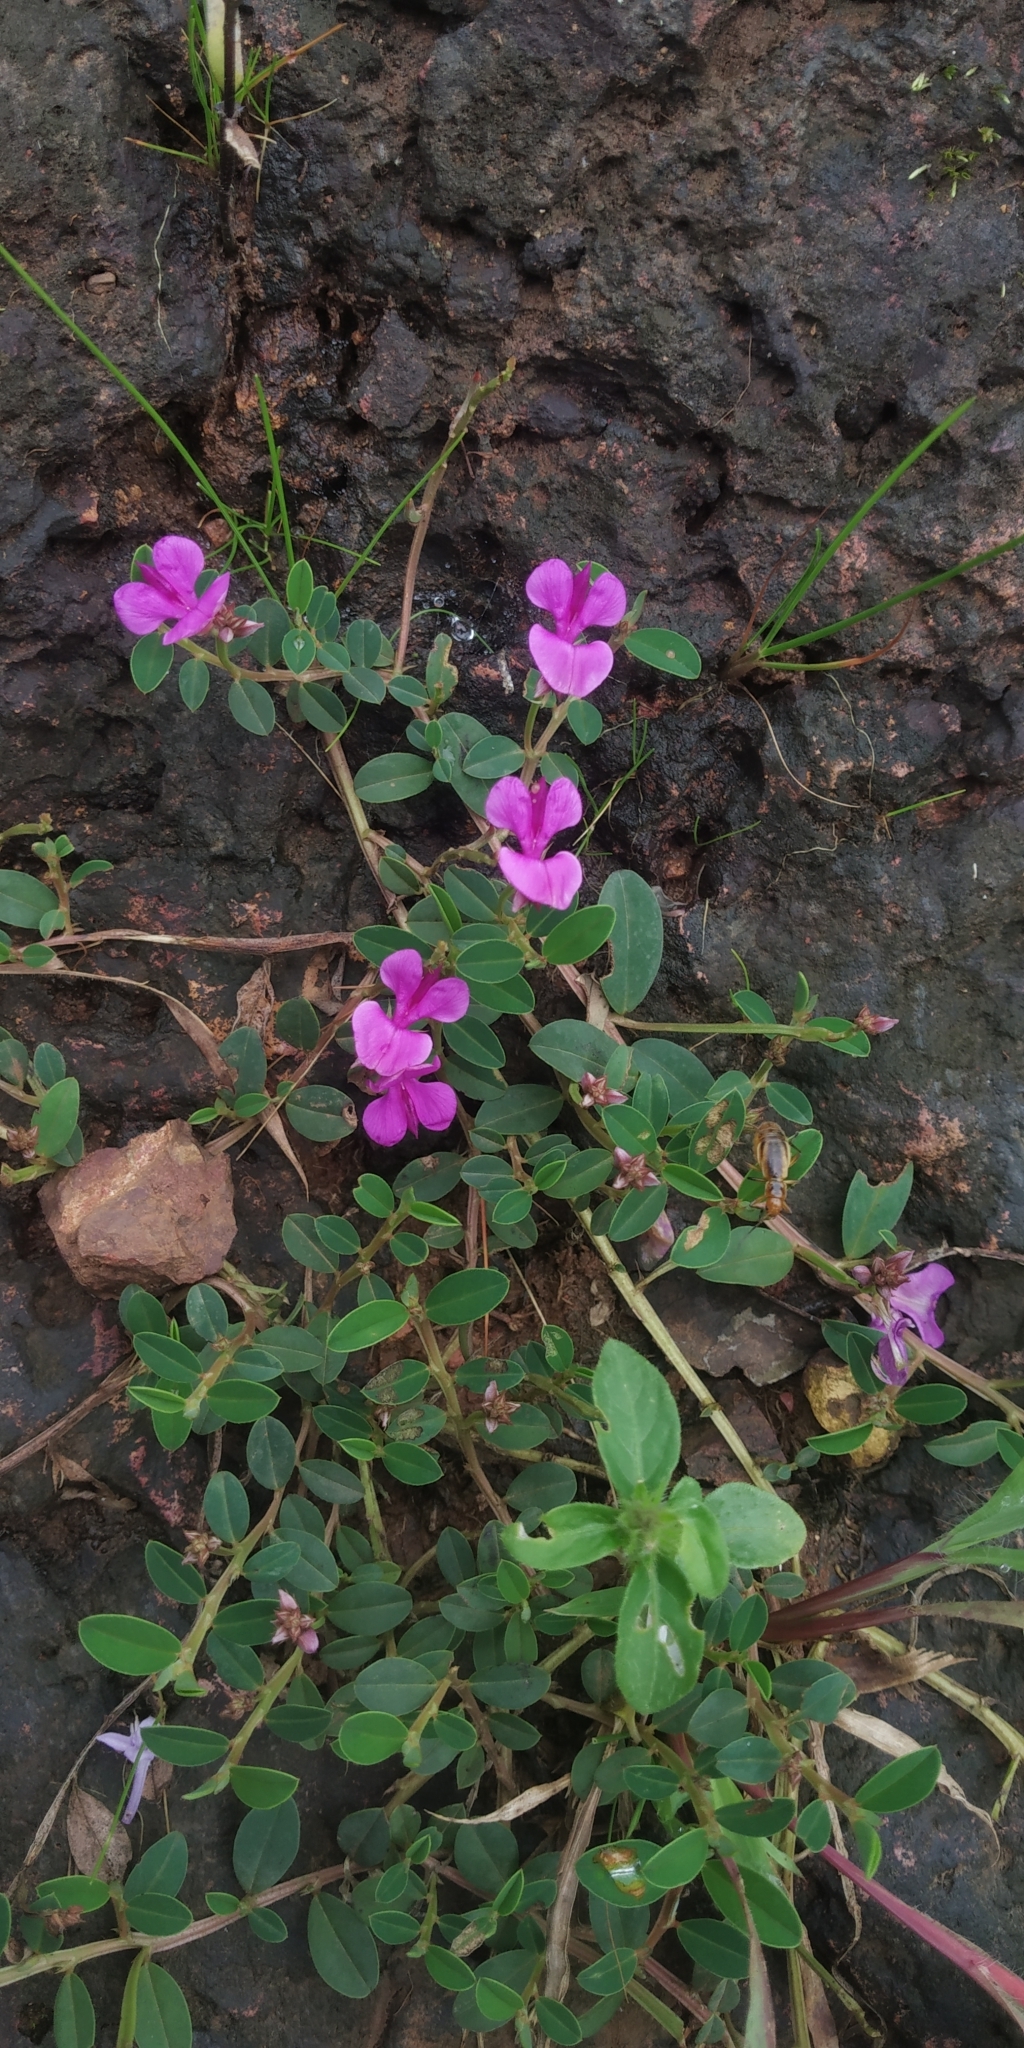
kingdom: Plantae
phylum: Tracheophyta
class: Magnoliopsida
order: Fabales
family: Fabaceae
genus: Indigofera
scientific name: Indigofera dalzelliana
